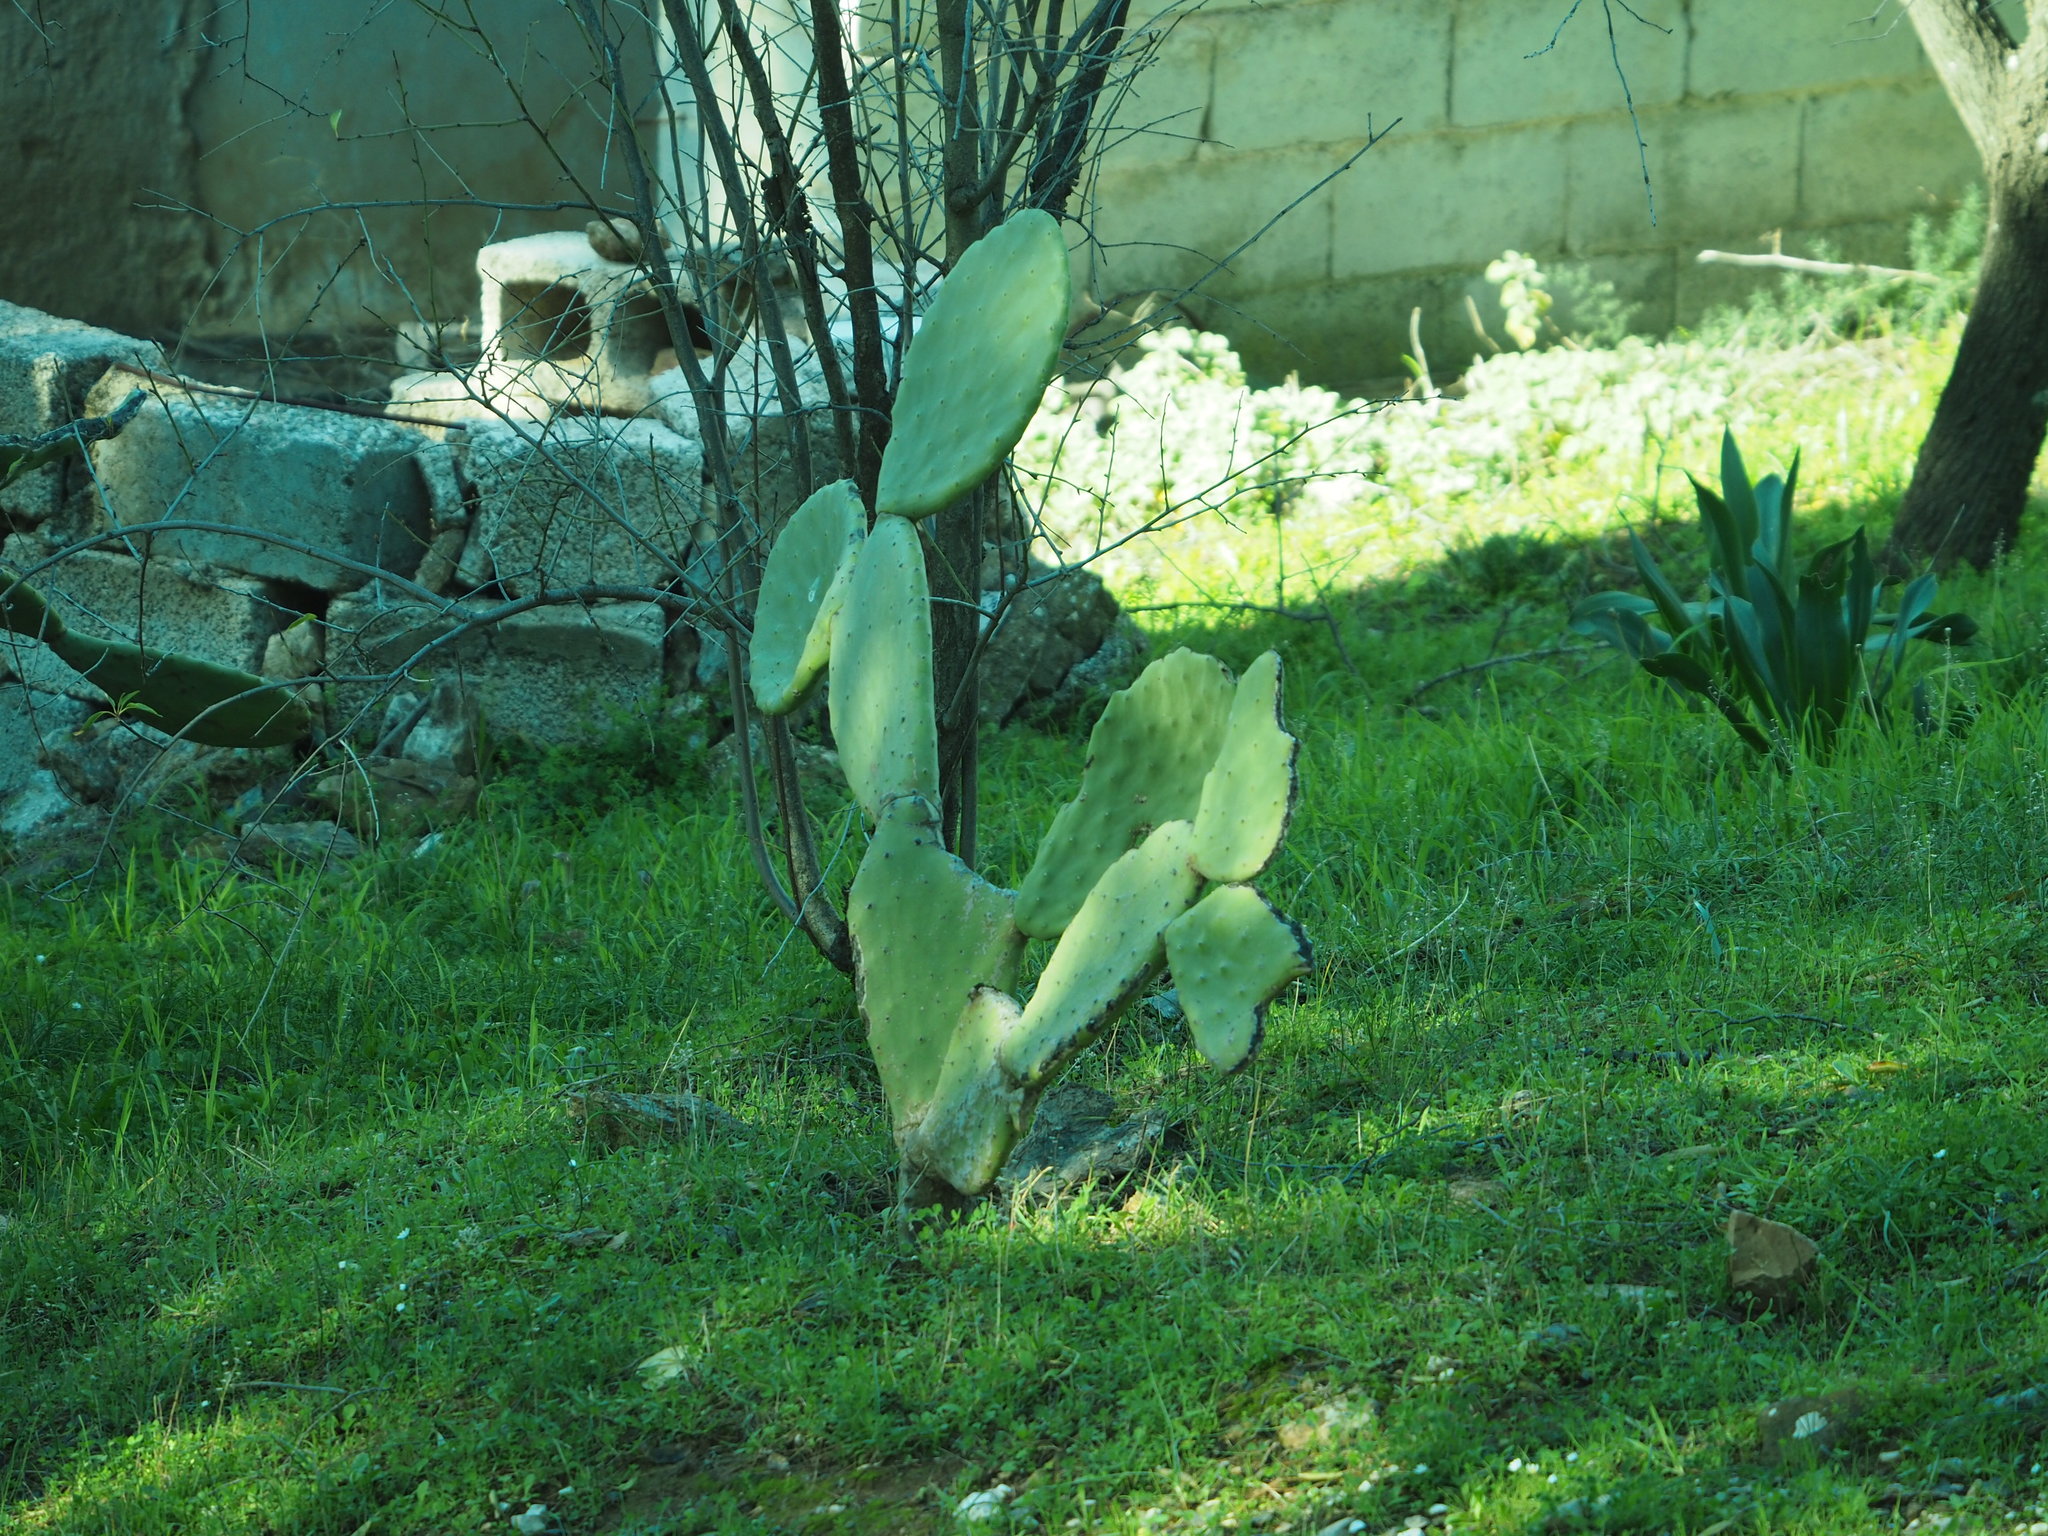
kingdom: Plantae
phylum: Tracheophyta
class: Magnoliopsida
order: Caryophyllales
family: Cactaceae
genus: Opuntia
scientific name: Opuntia ficus-indica
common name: Barbary fig
